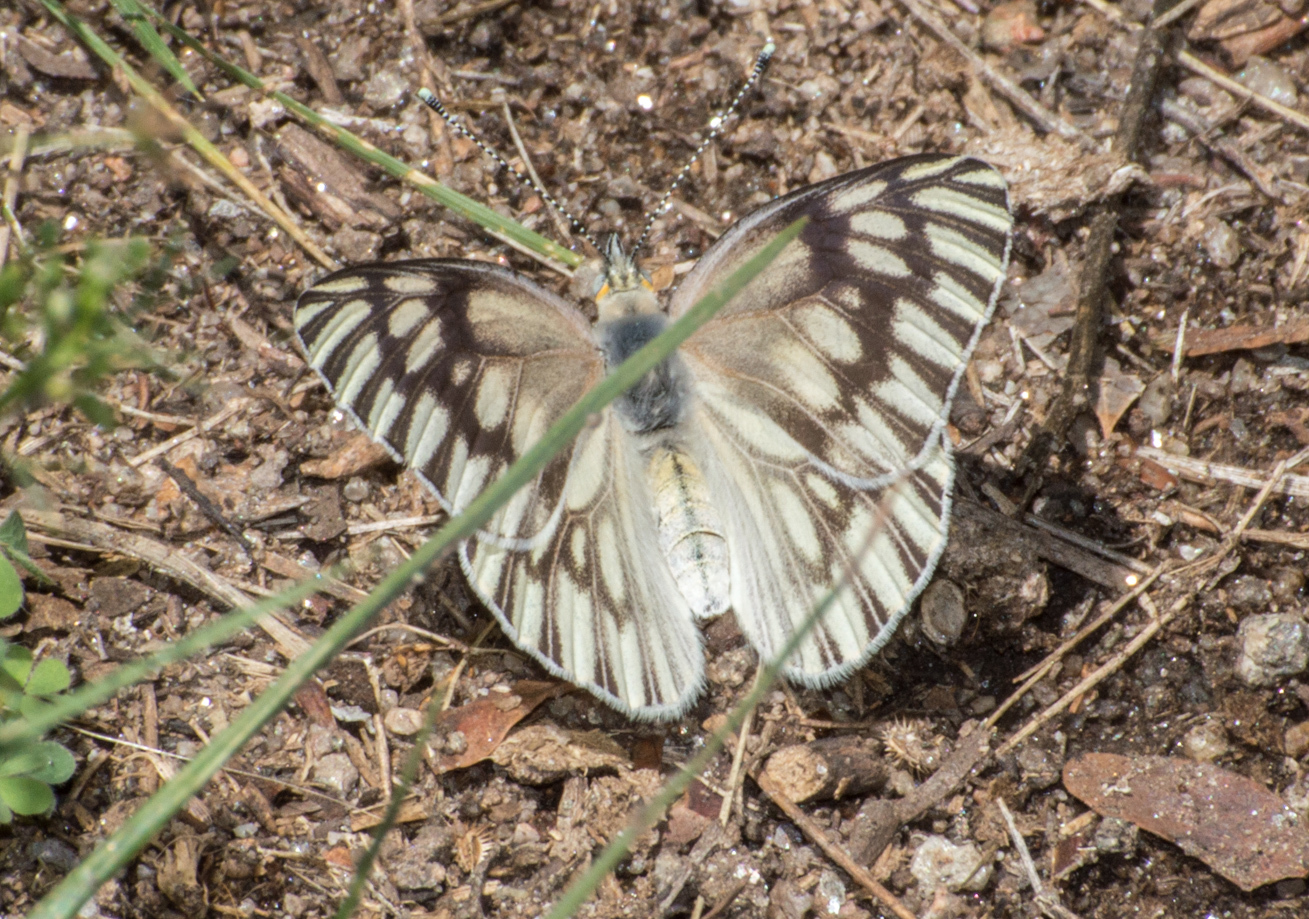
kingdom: Animalia
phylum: Arthropoda
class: Insecta
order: Lepidoptera
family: Pieridae
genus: Tatochila
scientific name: Tatochila mercedis
